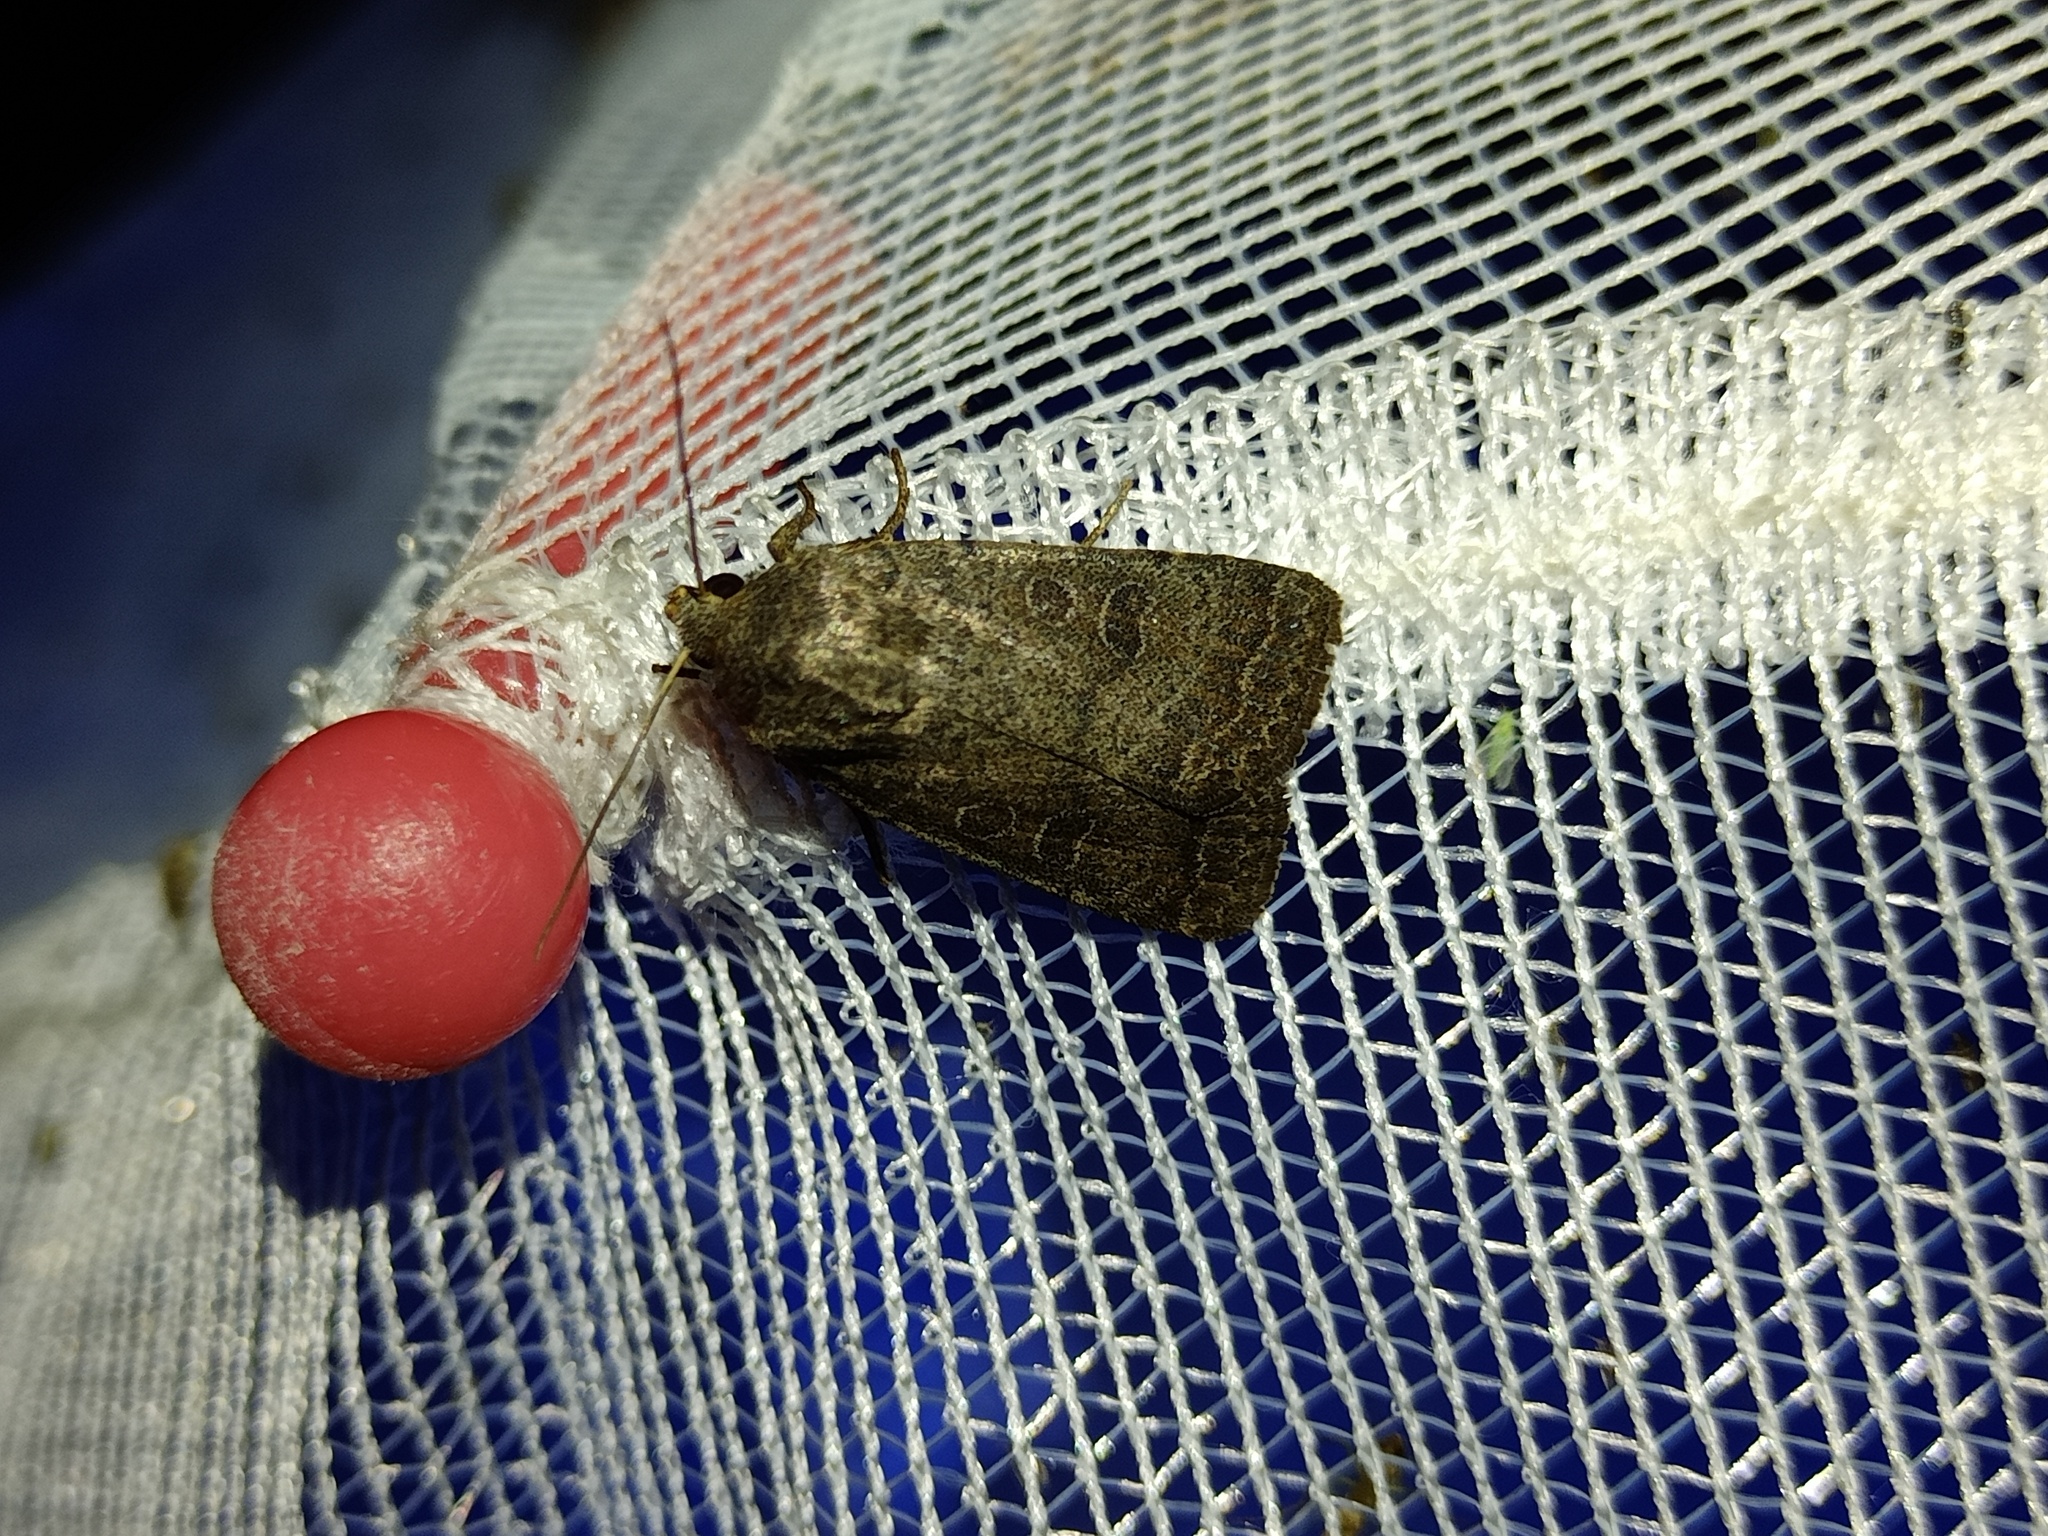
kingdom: Animalia
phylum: Arthropoda
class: Insecta
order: Lepidoptera
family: Noctuidae
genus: Hoplodrina
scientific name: Hoplodrina blanda
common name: Rustic
